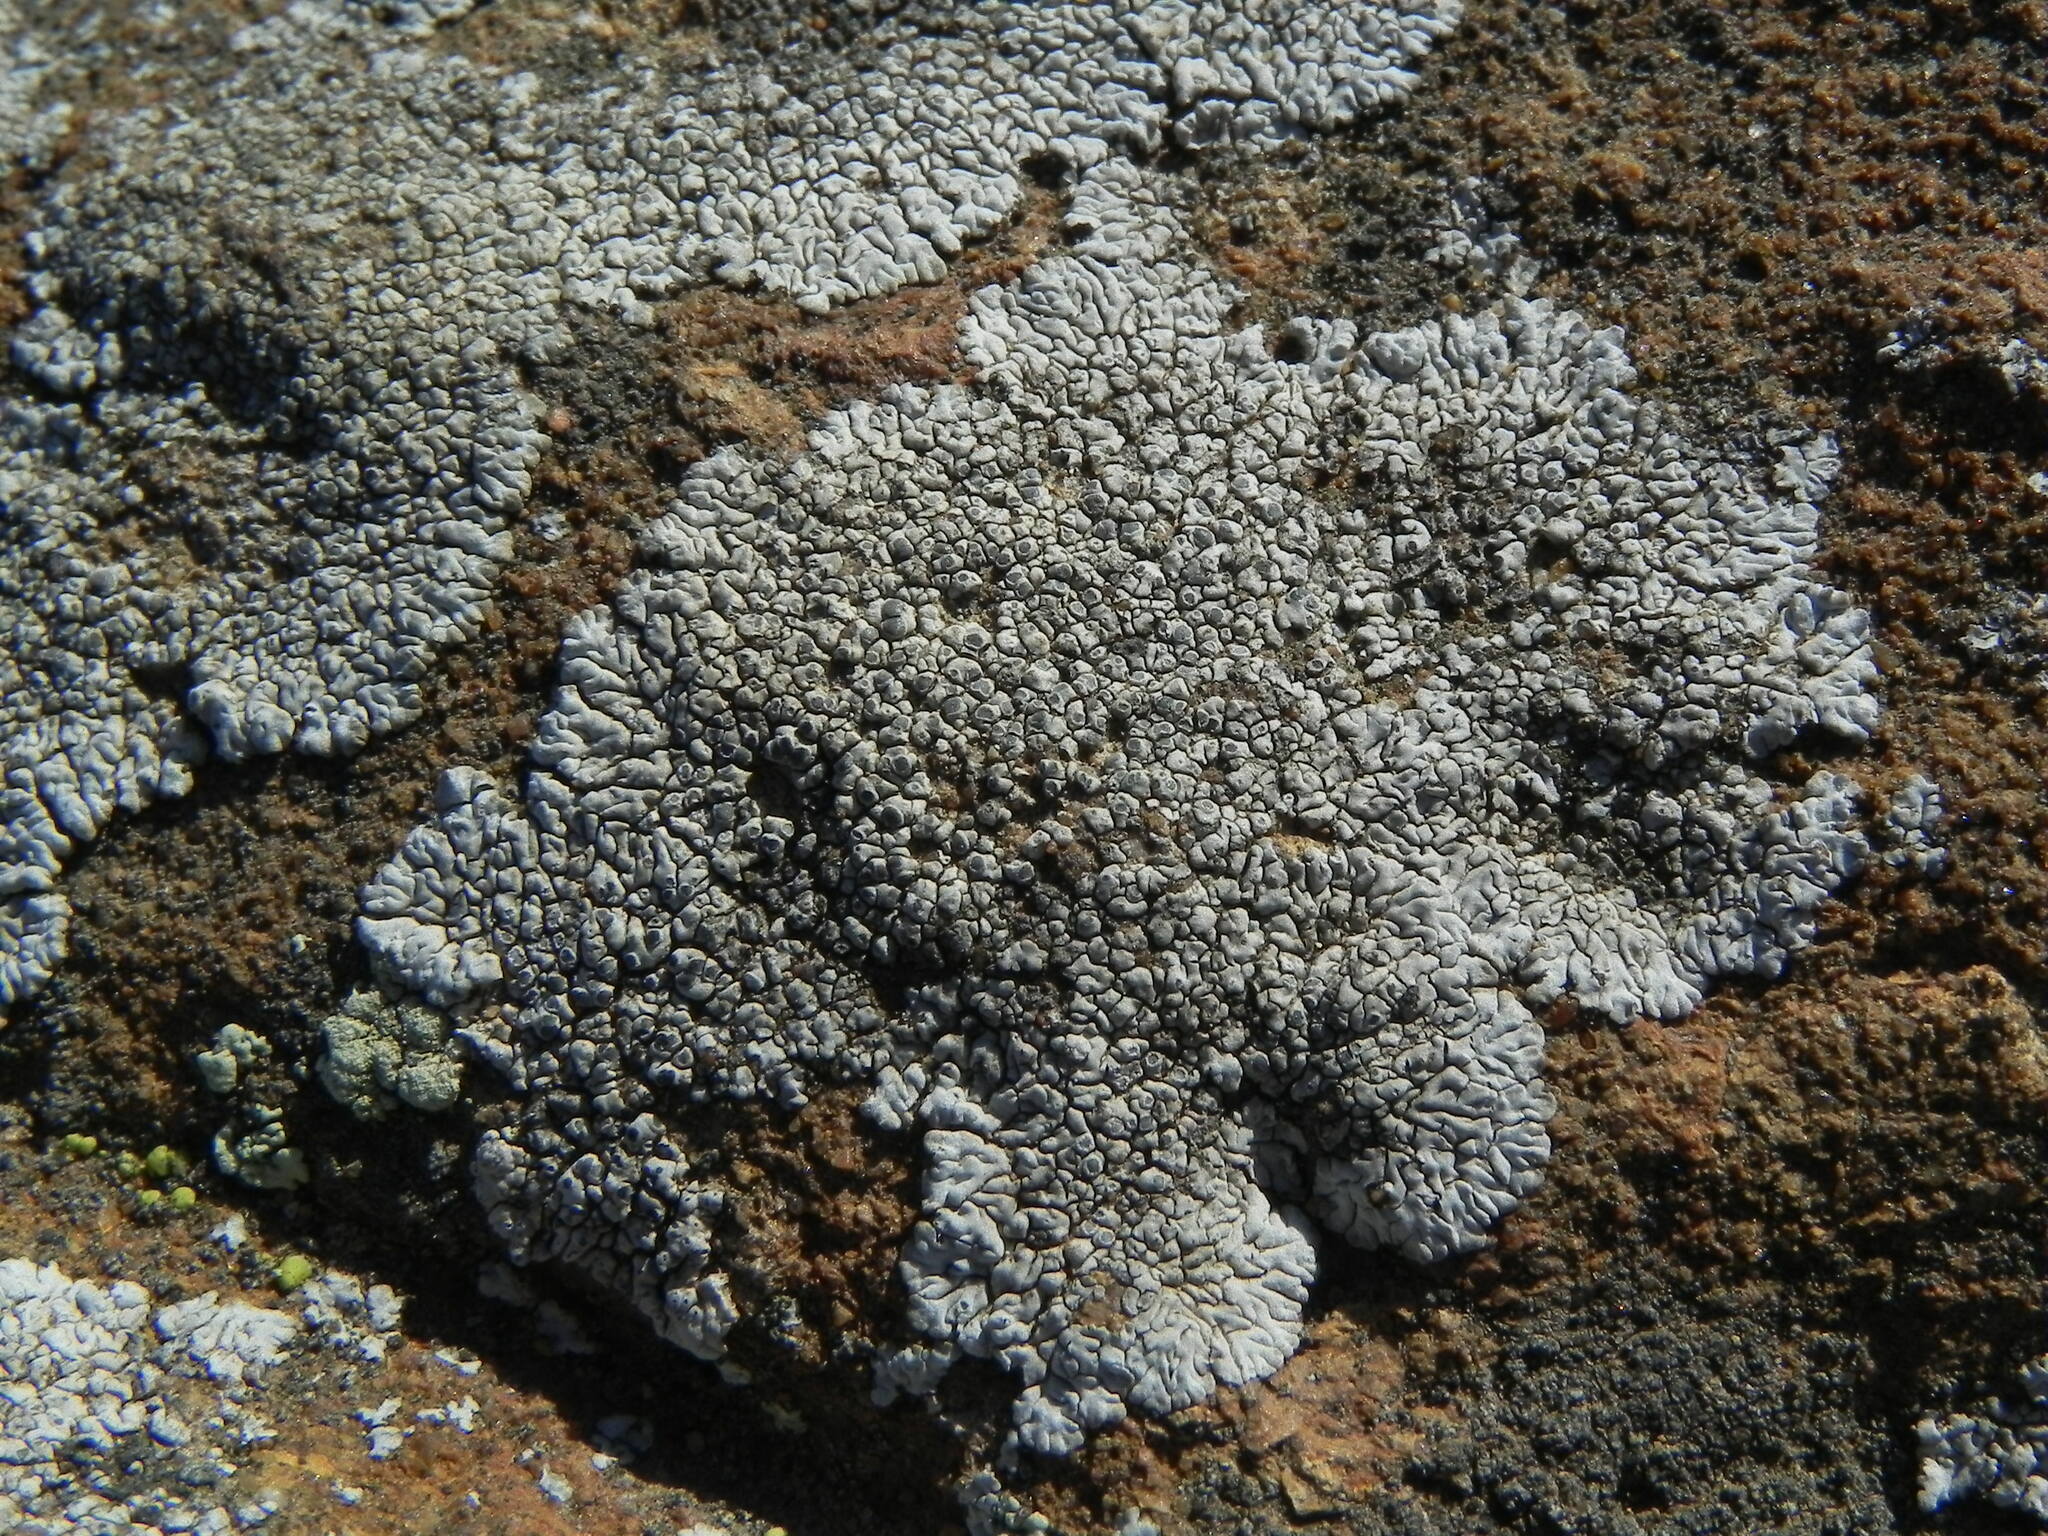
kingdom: Fungi
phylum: Ascomycota
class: Lecanoromycetes
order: Caliciales
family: Caliciaceae
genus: Dimelaena
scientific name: Dimelaena radiata
